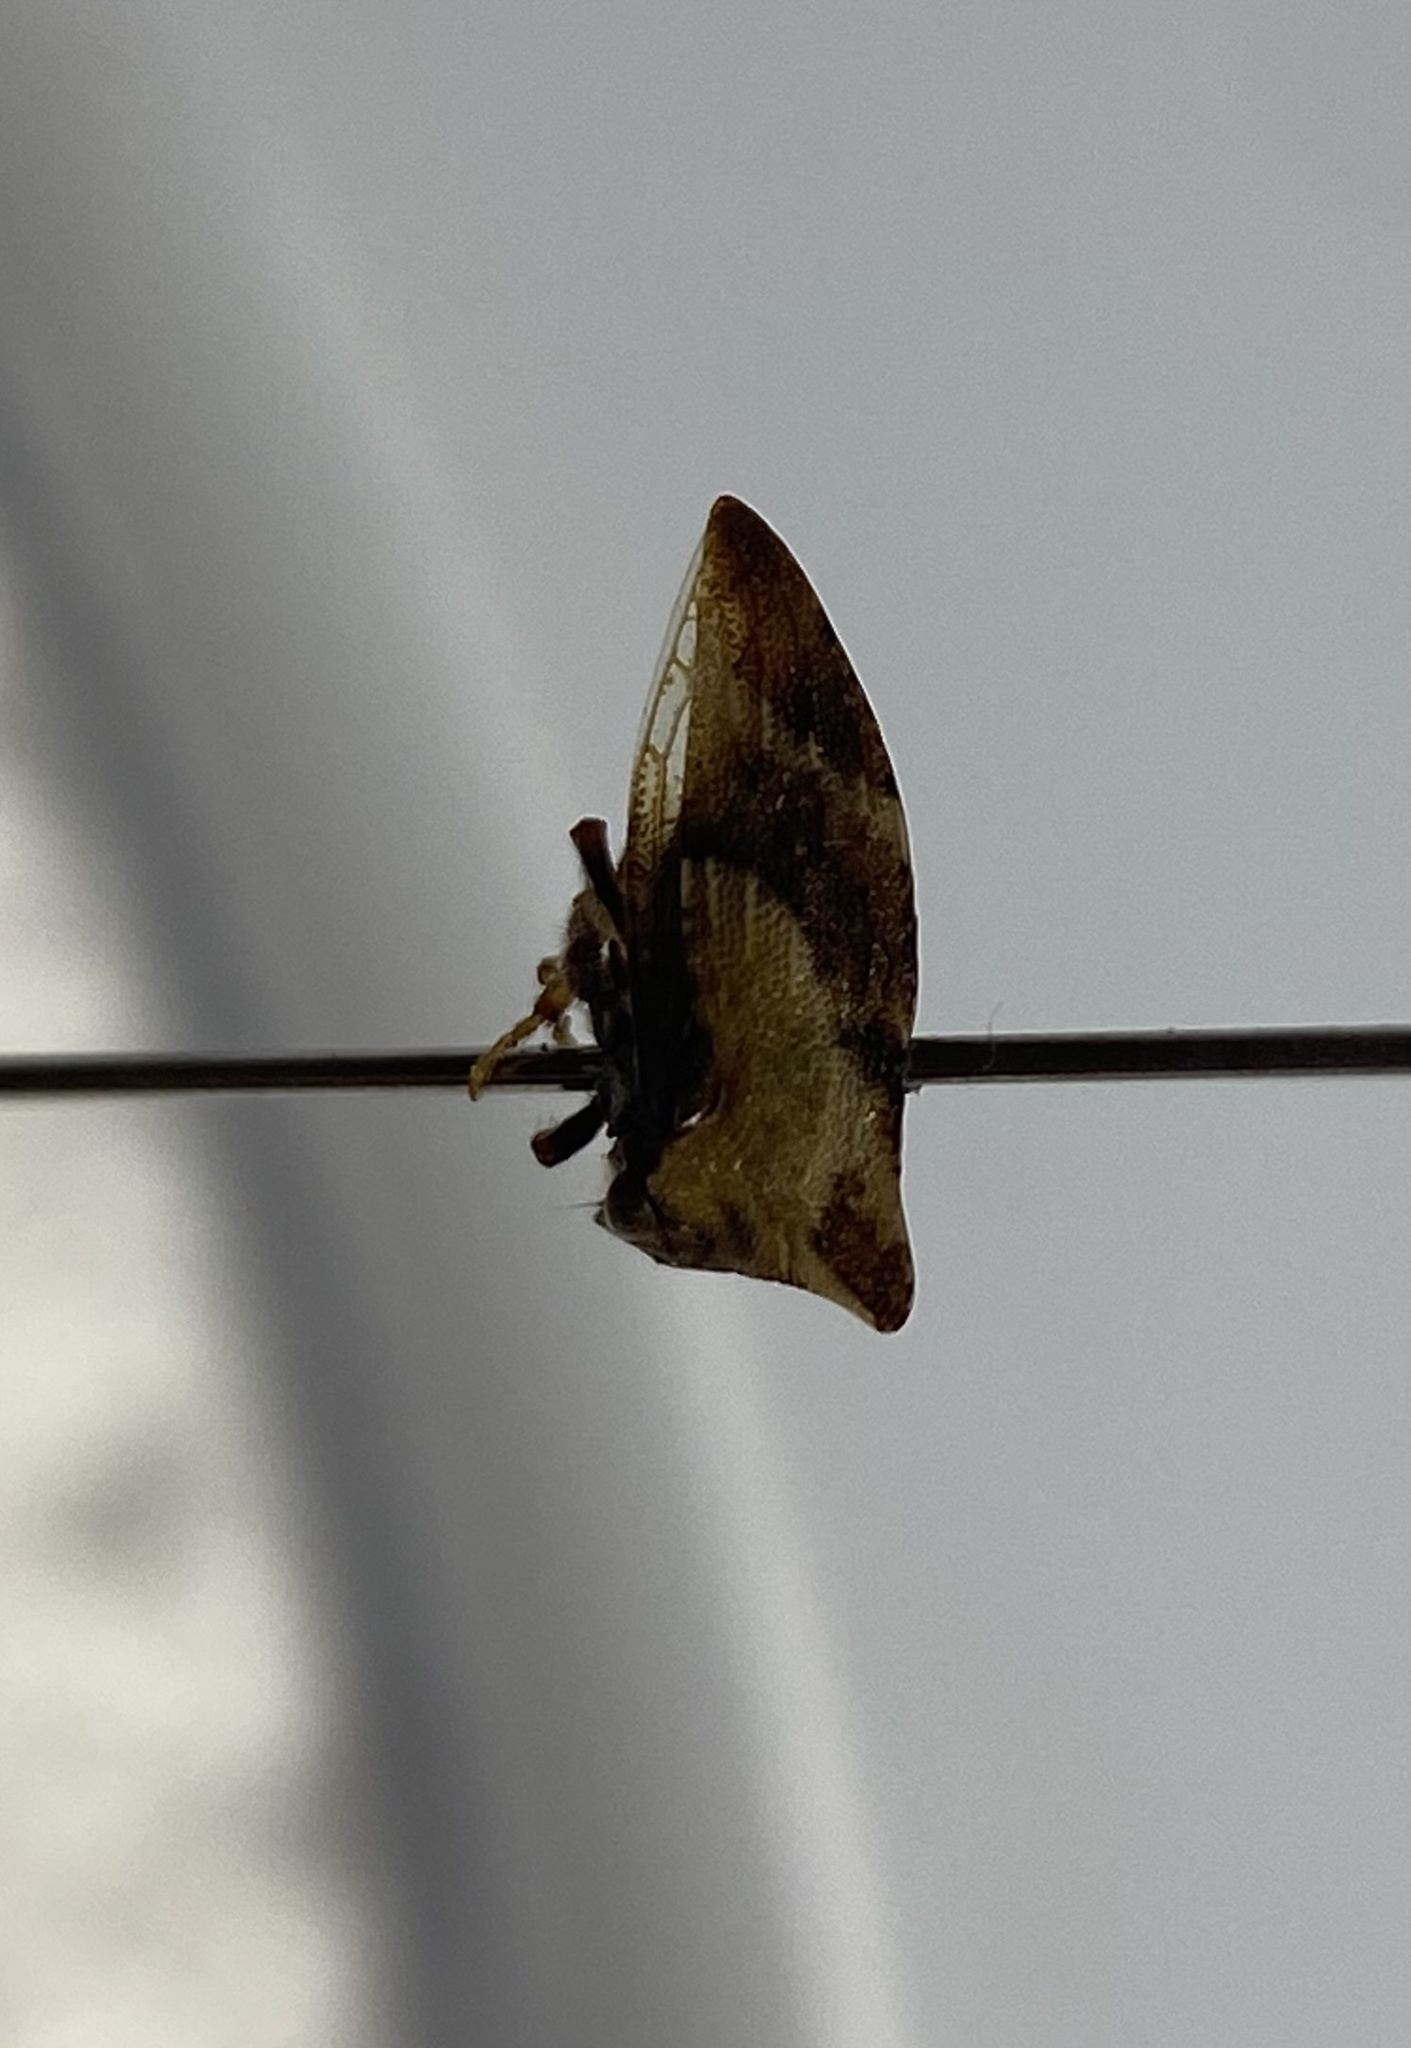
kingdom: Animalia
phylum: Arthropoda
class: Insecta
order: Hemiptera
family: Membracidae
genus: Publilia
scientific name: Publilia porrecta
